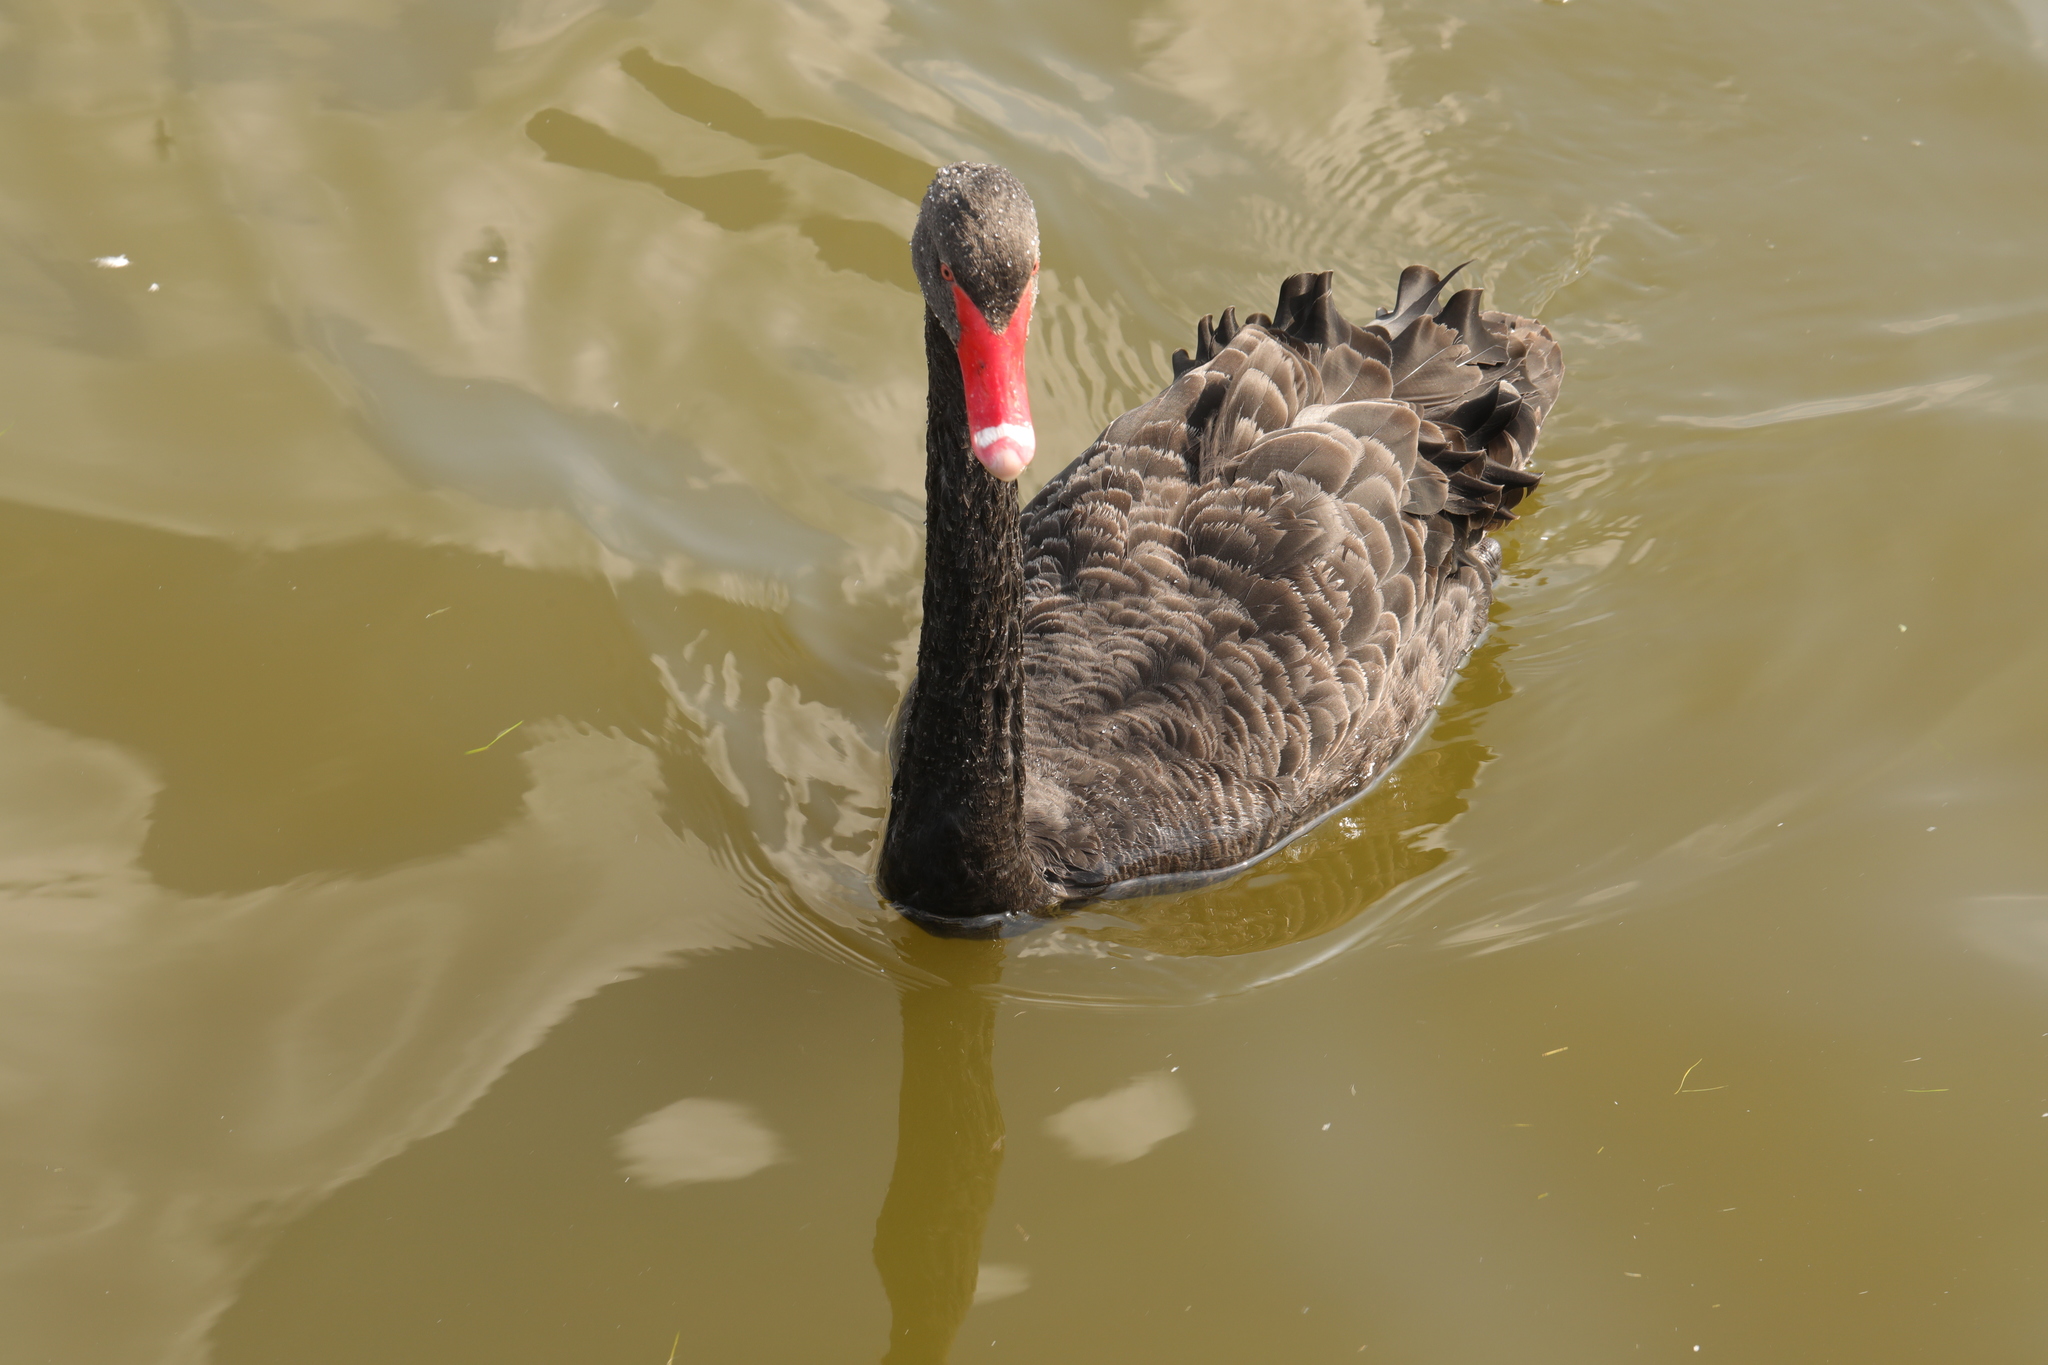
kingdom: Animalia
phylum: Chordata
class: Aves
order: Anseriformes
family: Anatidae
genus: Cygnus
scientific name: Cygnus atratus
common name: Black swan
